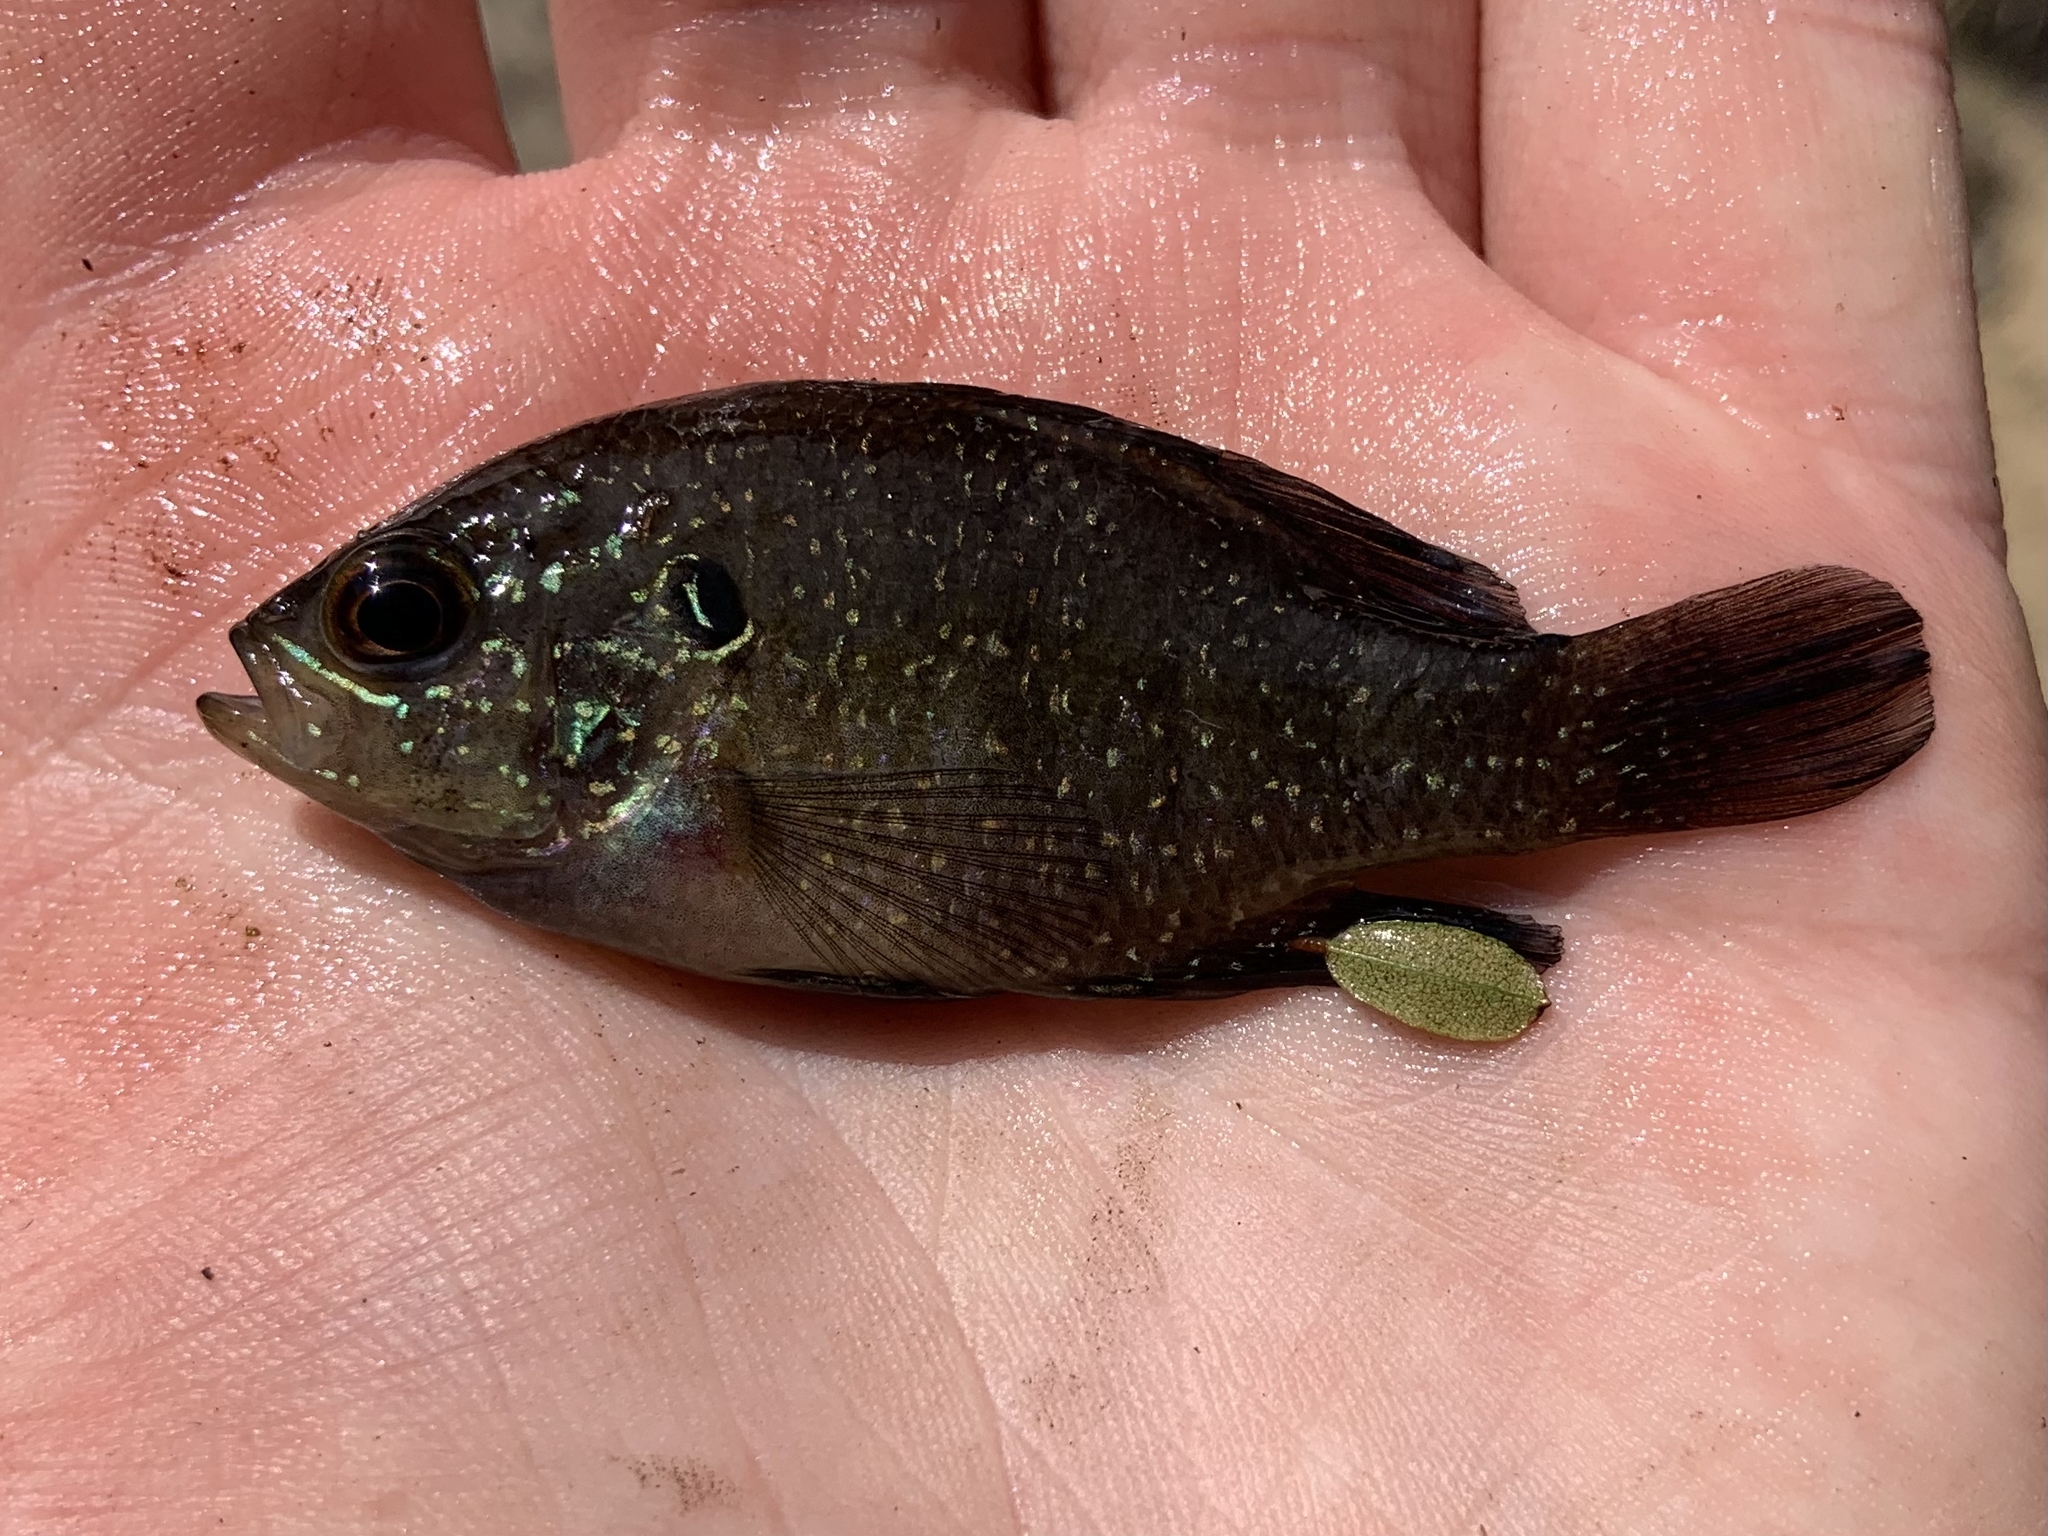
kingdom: Animalia
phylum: Chordata
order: Perciformes
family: Centrarchidae
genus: Enneacanthus
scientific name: Enneacanthus obesus
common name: Banded sunfish
